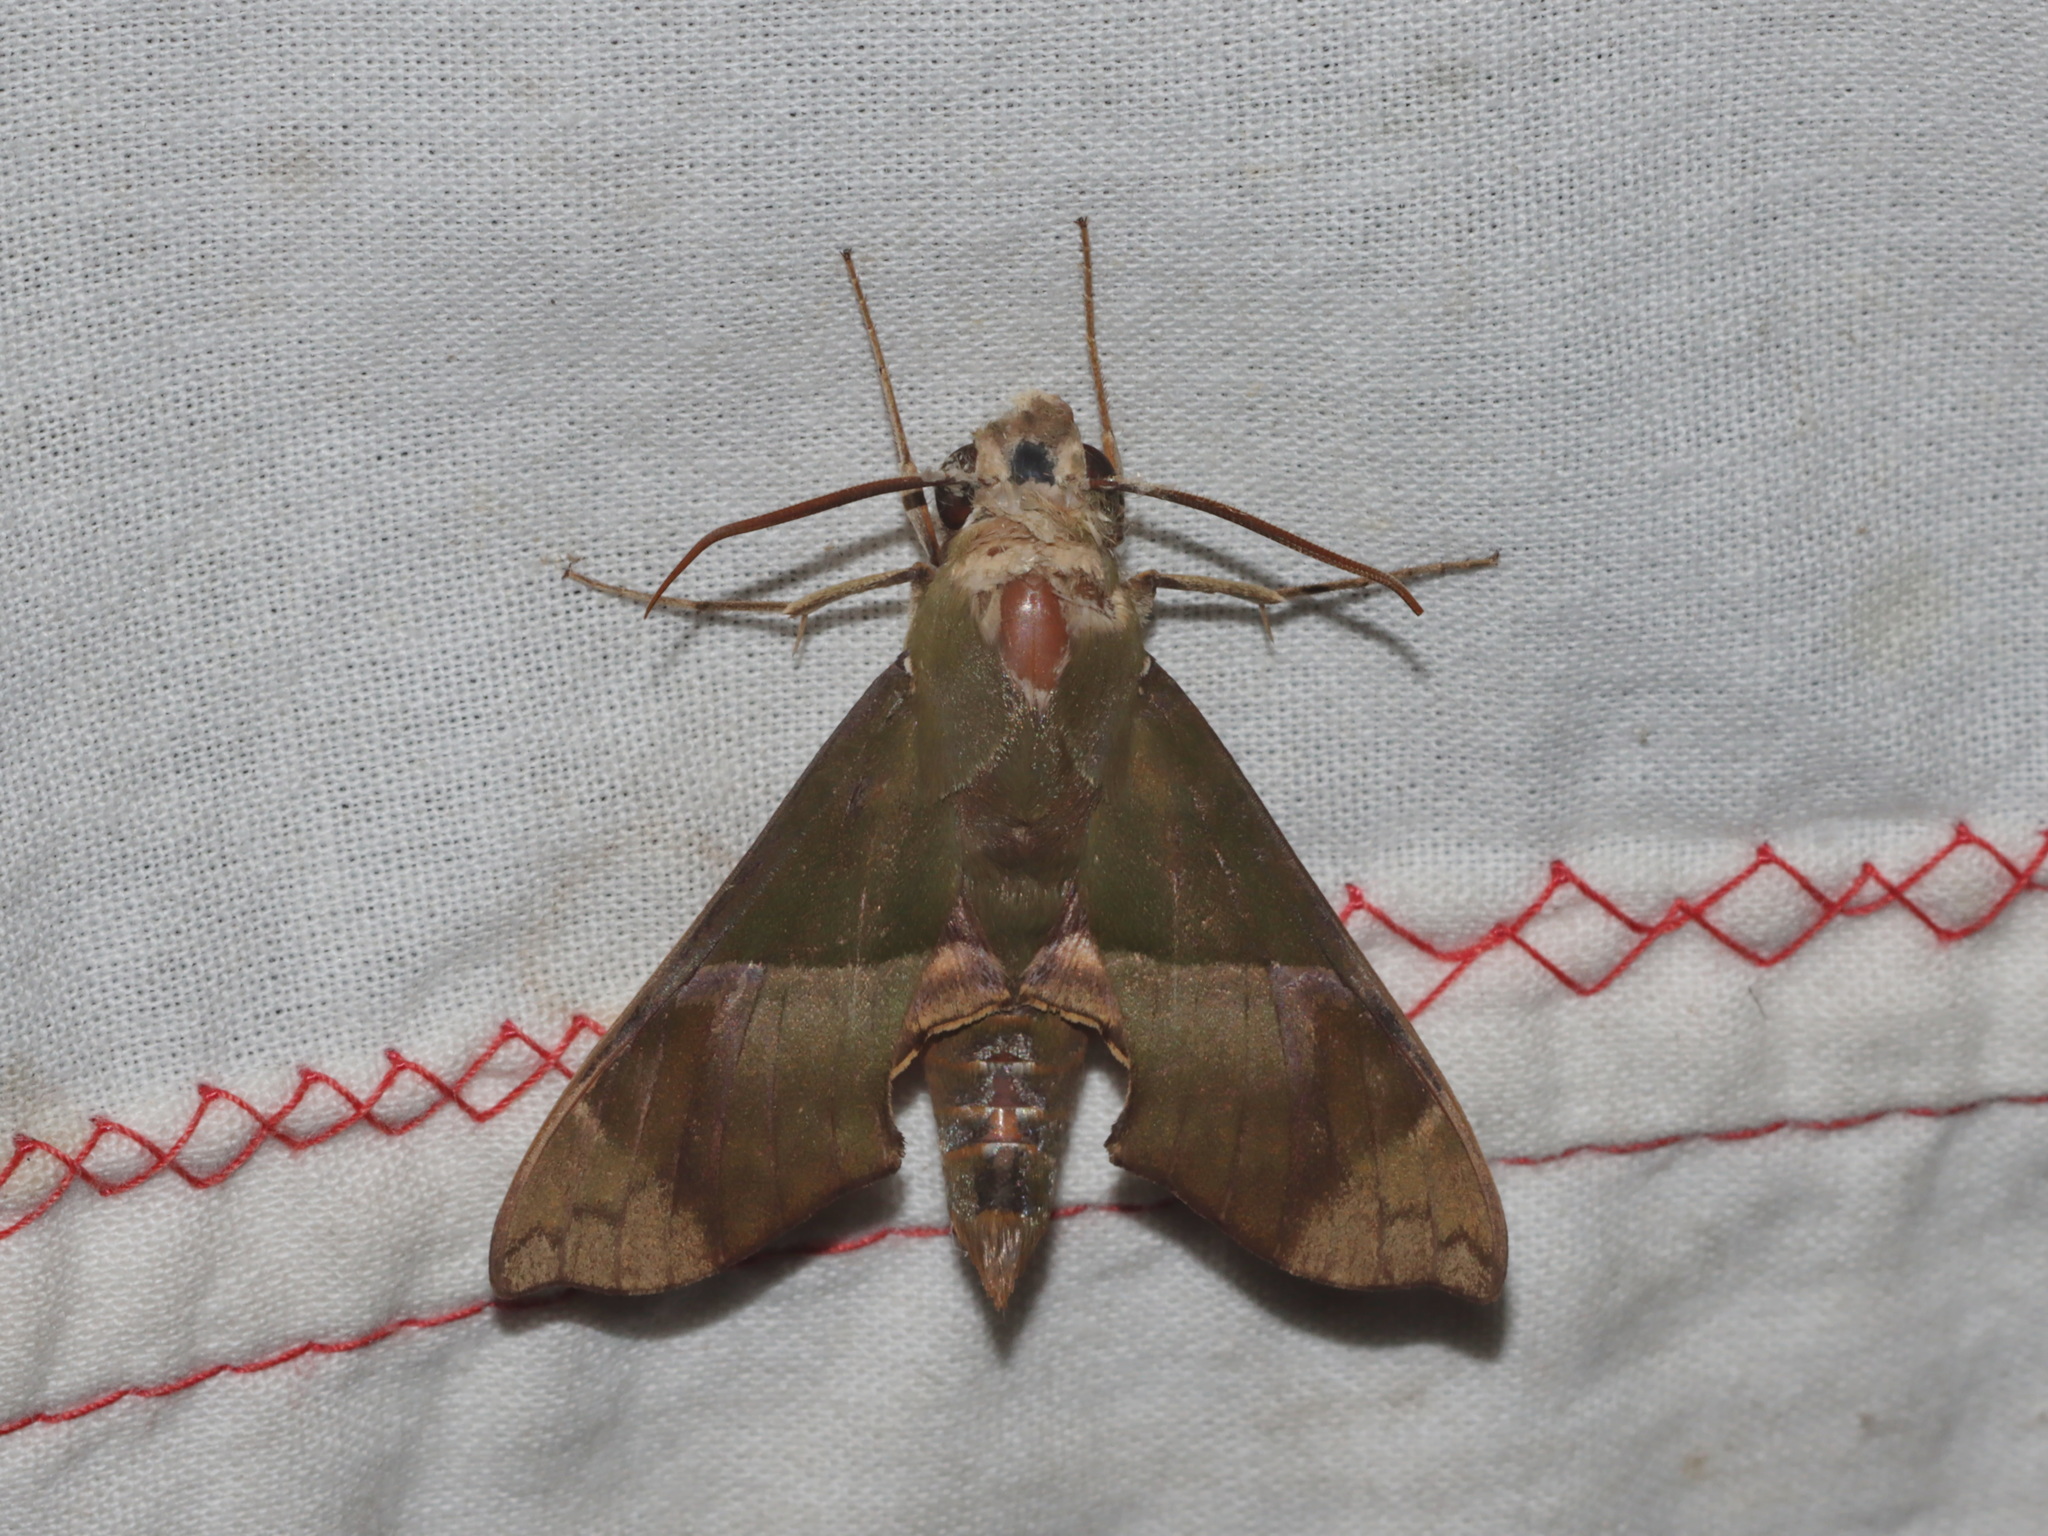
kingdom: Animalia
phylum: Arthropoda
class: Insecta
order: Lepidoptera
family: Sphingidae
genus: Angonyx
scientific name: Angonyx testacea
